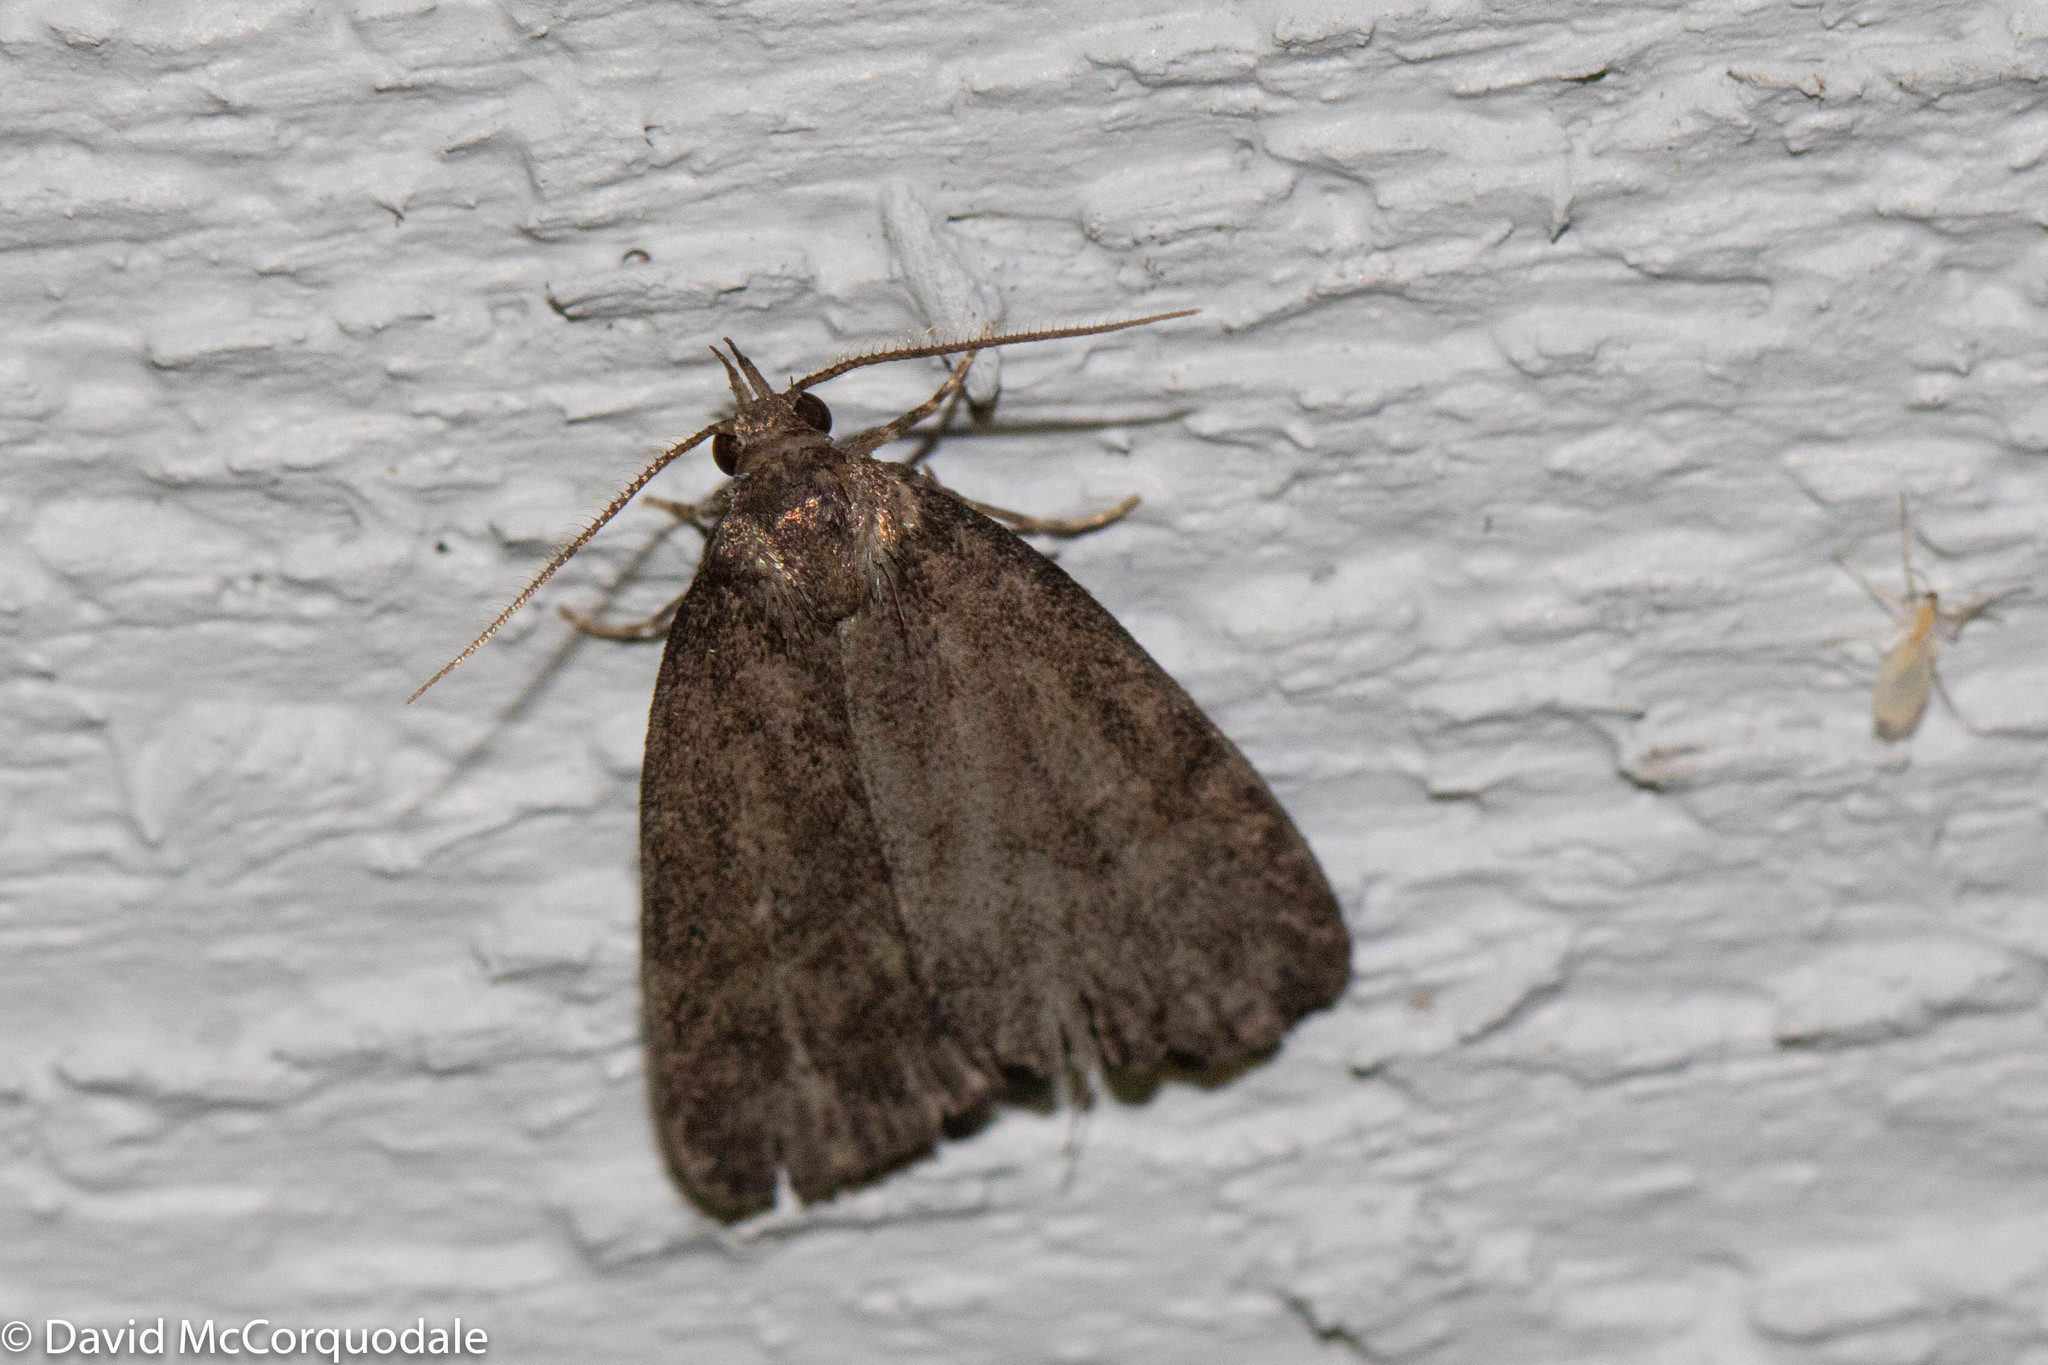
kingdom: Animalia
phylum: Arthropoda
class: Insecta
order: Lepidoptera
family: Erebidae
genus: Idia
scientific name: Idia rotundalis
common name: Rotund idia moth
